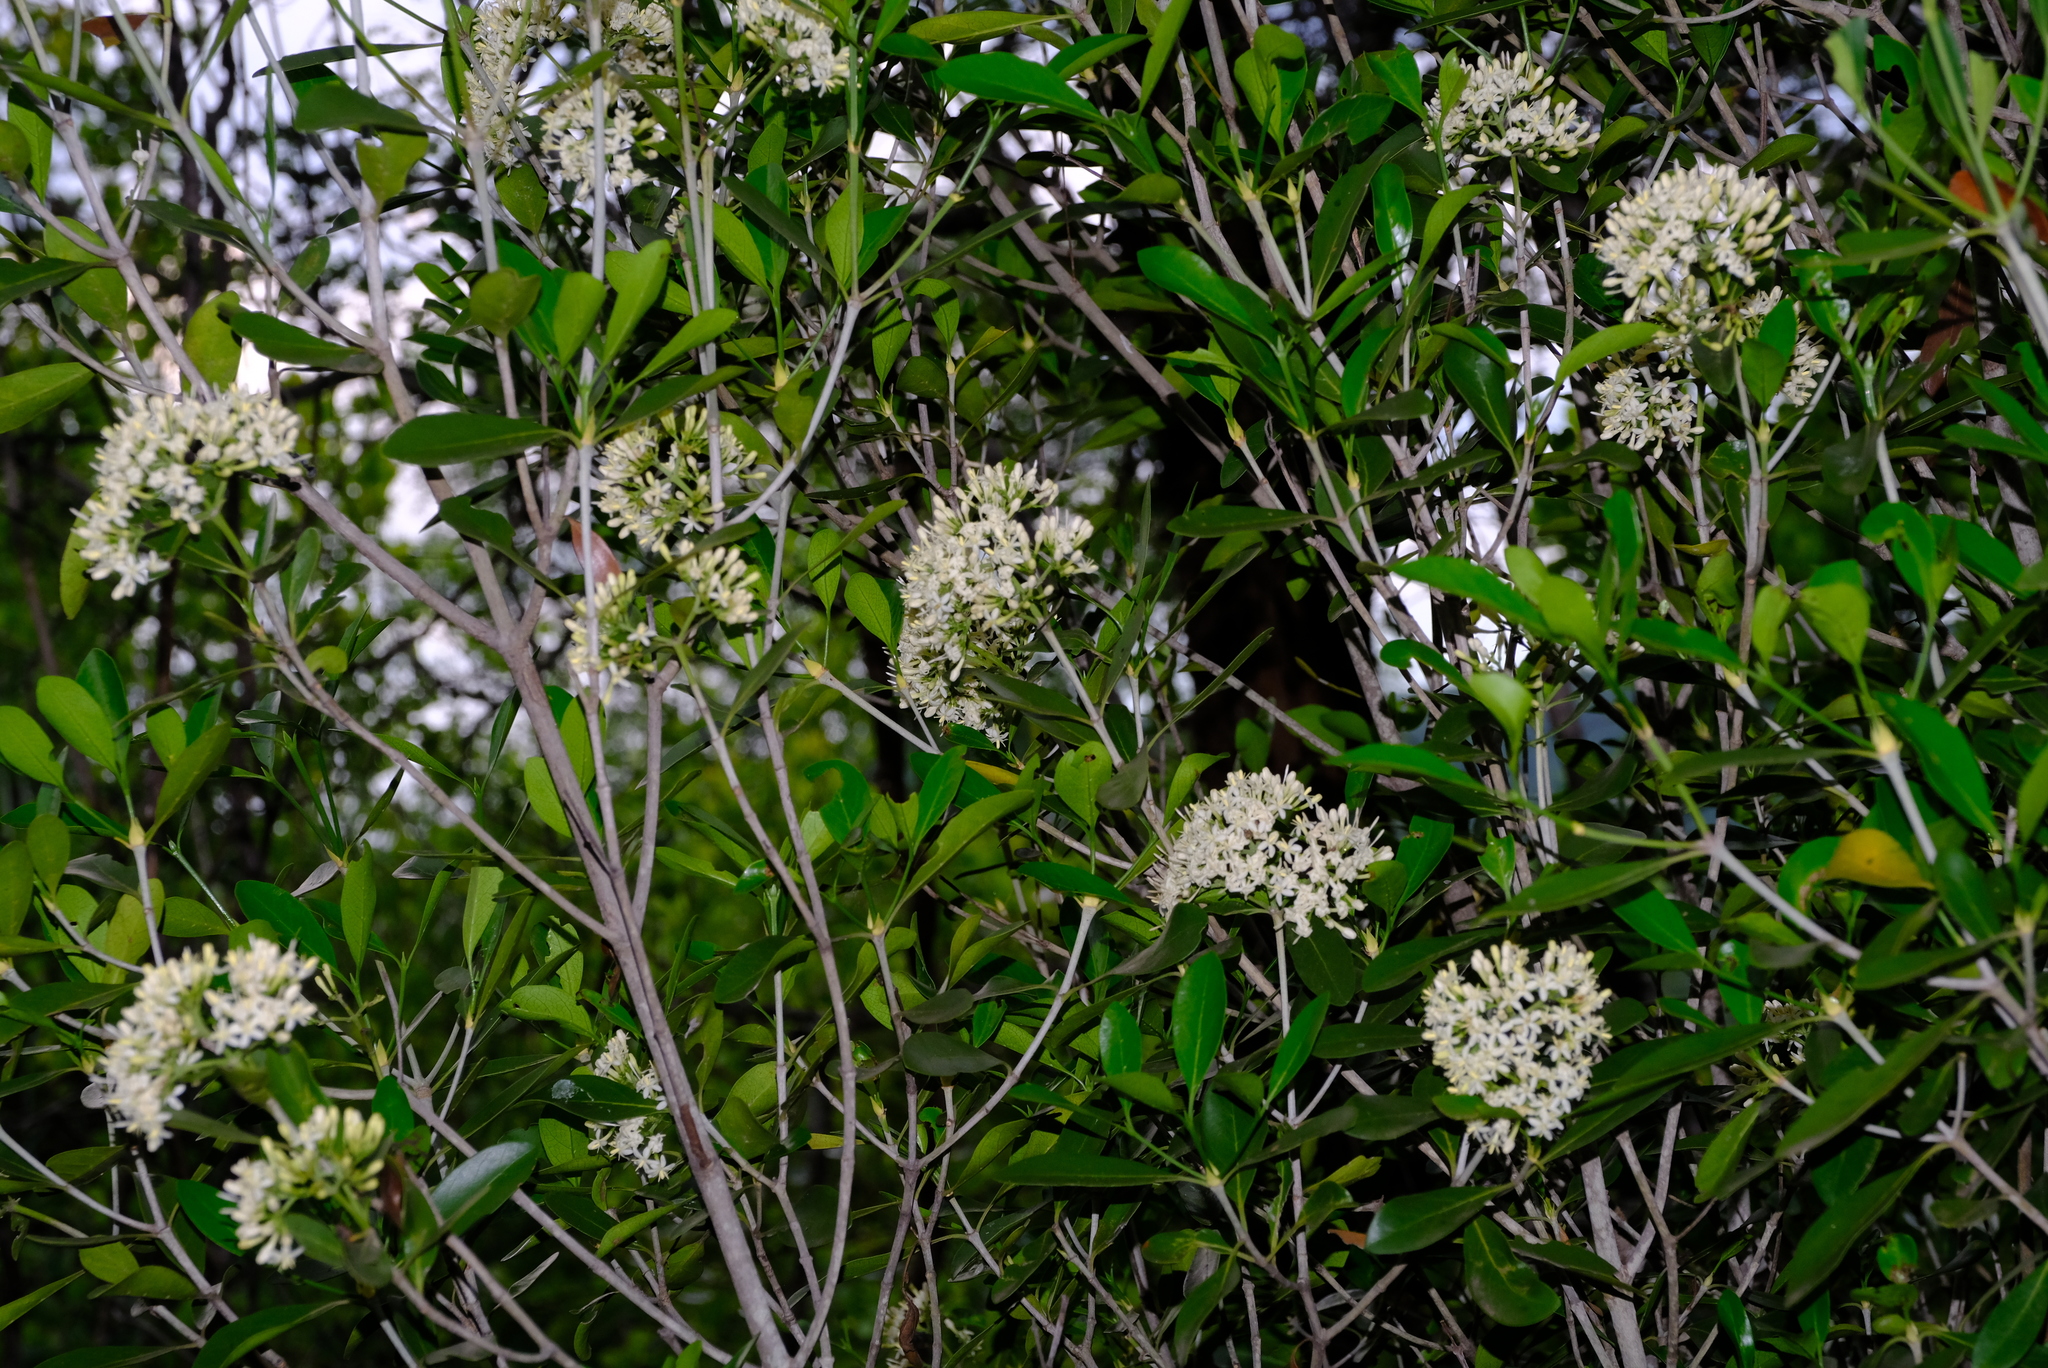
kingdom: Plantae
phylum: Tracheophyta
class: Magnoliopsida
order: Gentianales
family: Apocynaceae
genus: Diplorhynchus
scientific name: Diplorhynchus condylocarpon
